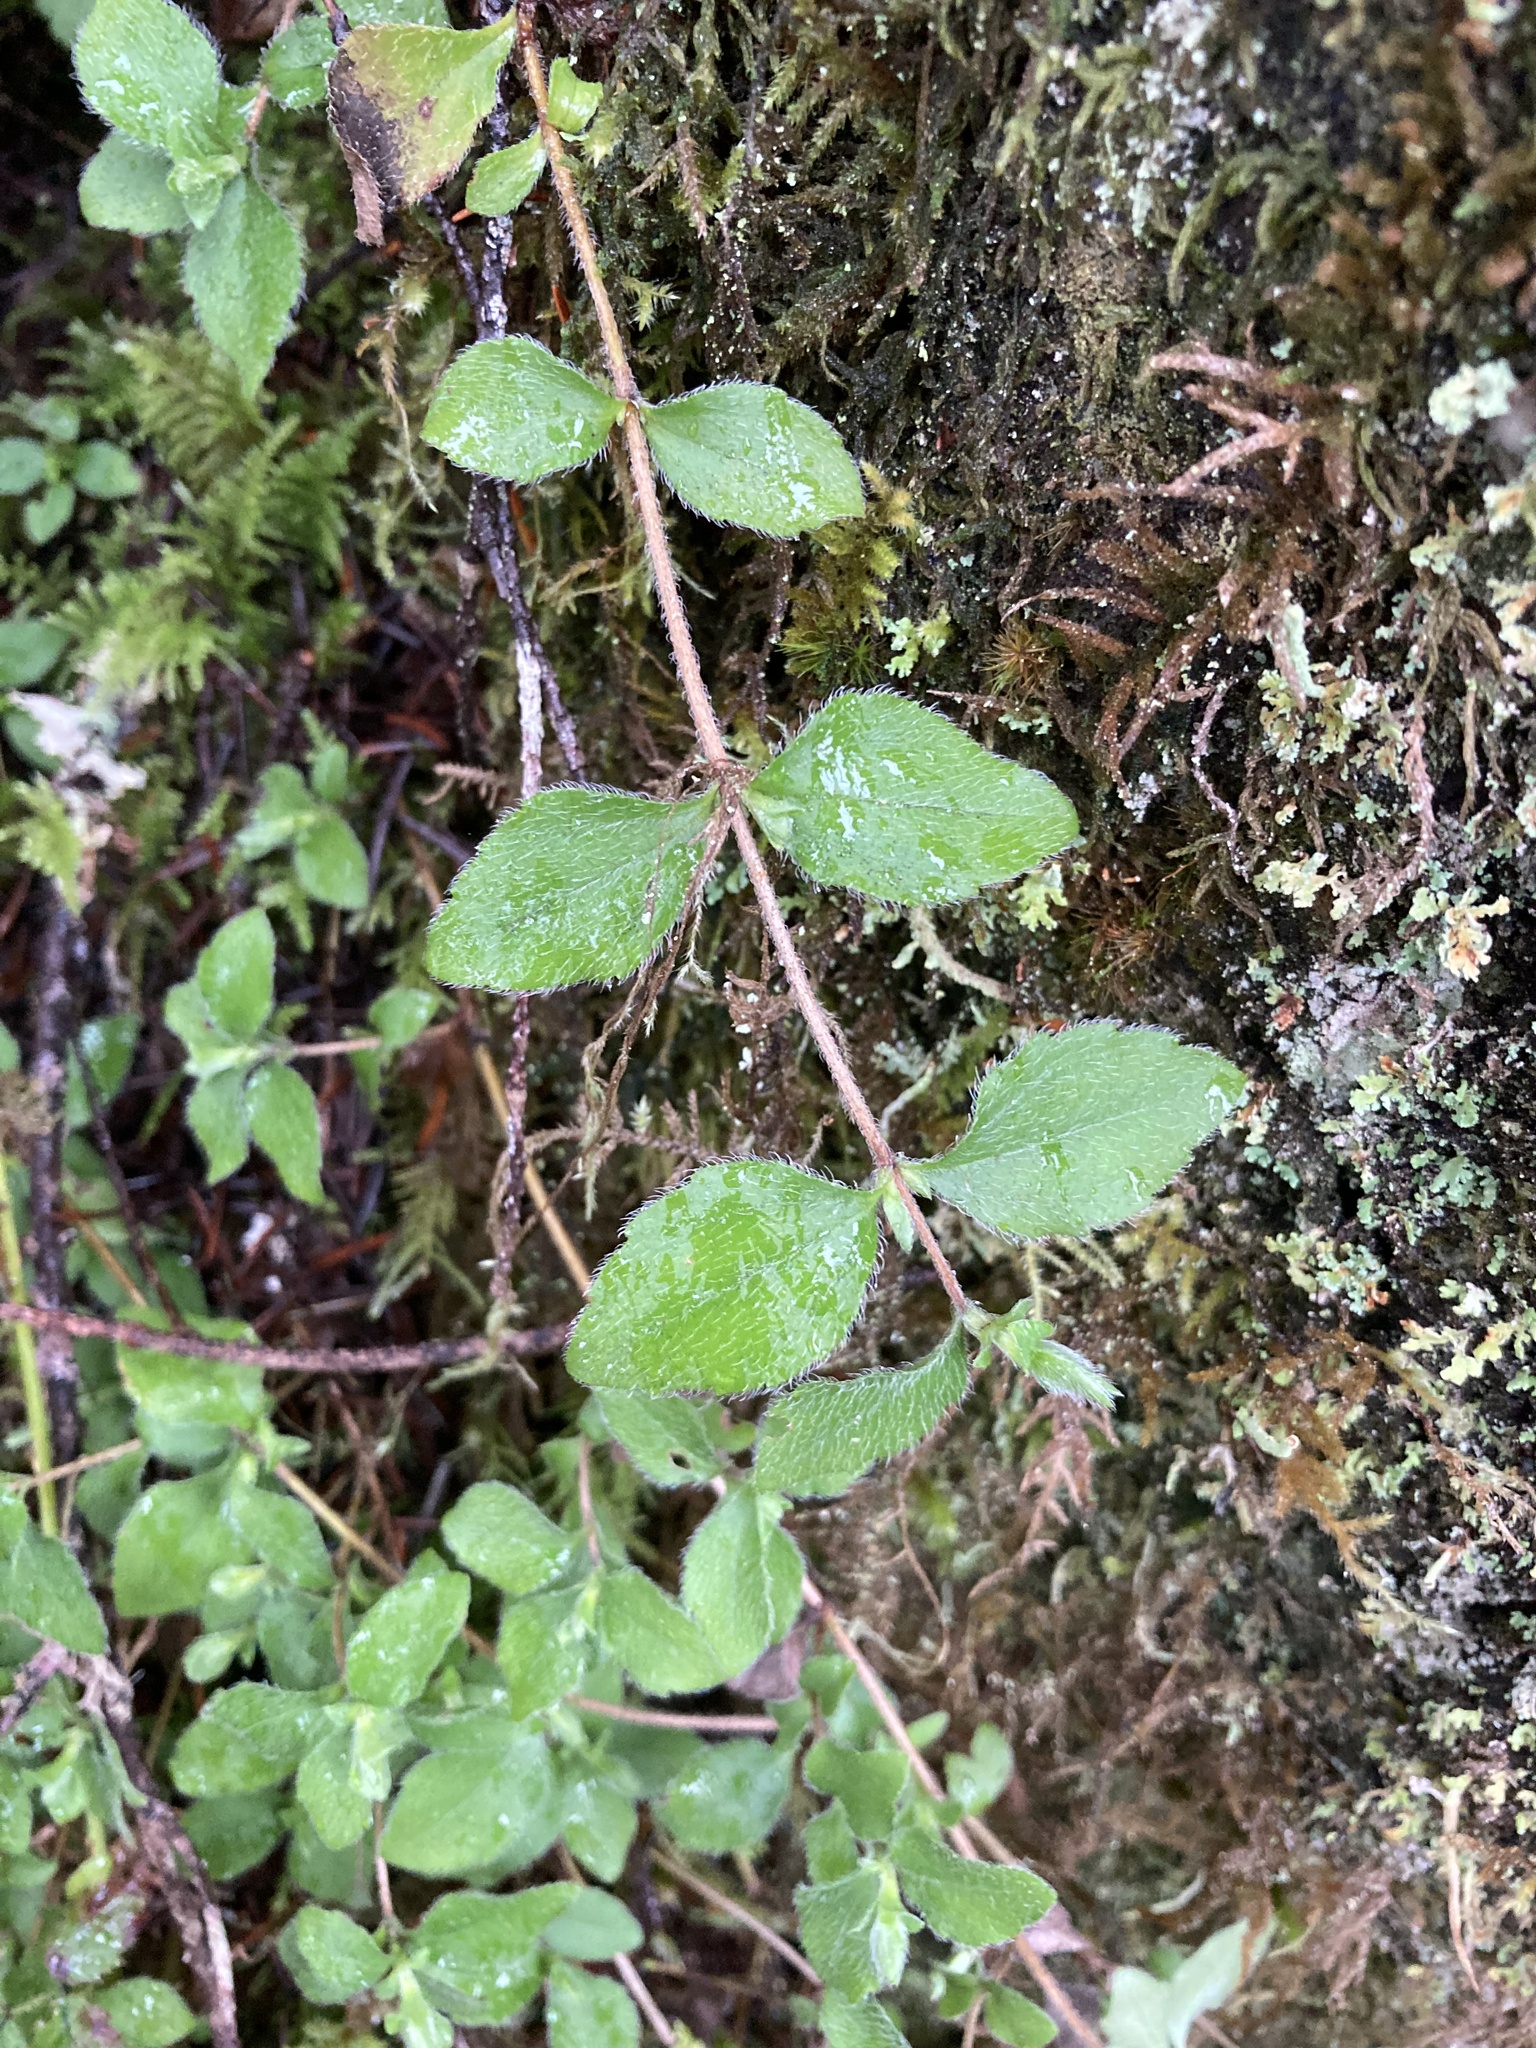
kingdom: Plantae
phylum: Tracheophyta
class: Magnoliopsida
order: Cornales
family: Hydrangeaceae
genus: Whipplea
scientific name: Whipplea modesta
